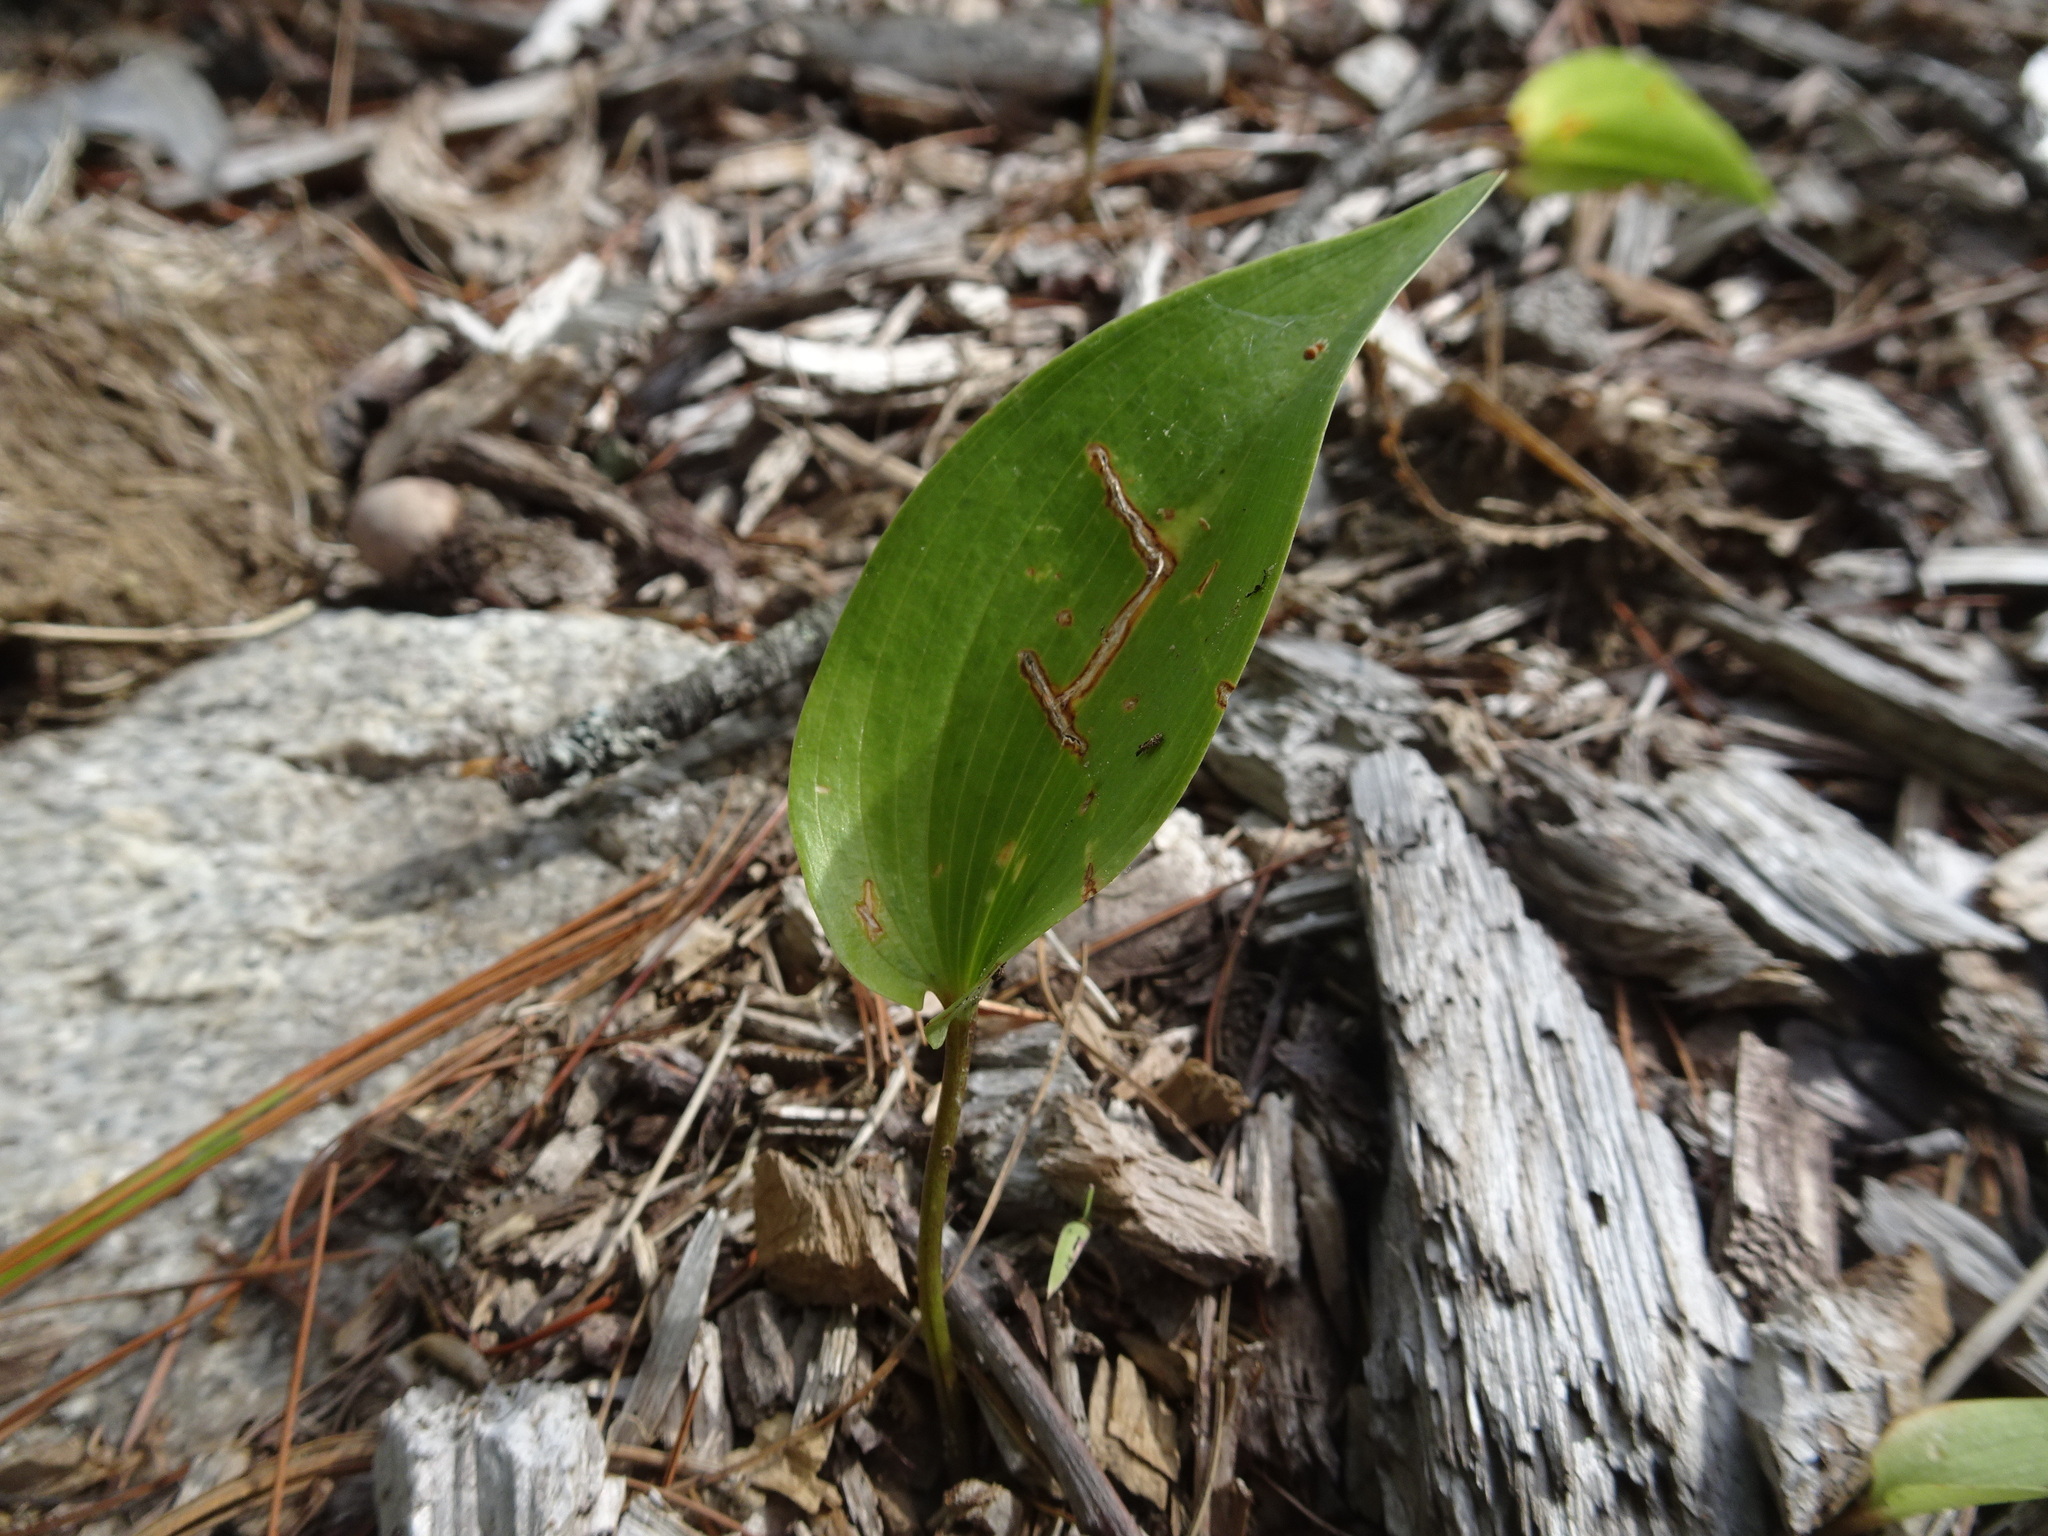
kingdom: Plantae
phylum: Tracheophyta
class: Liliopsida
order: Asparagales
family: Asparagaceae
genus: Maianthemum
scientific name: Maianthemum canadense
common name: False lily-of-the-valley
